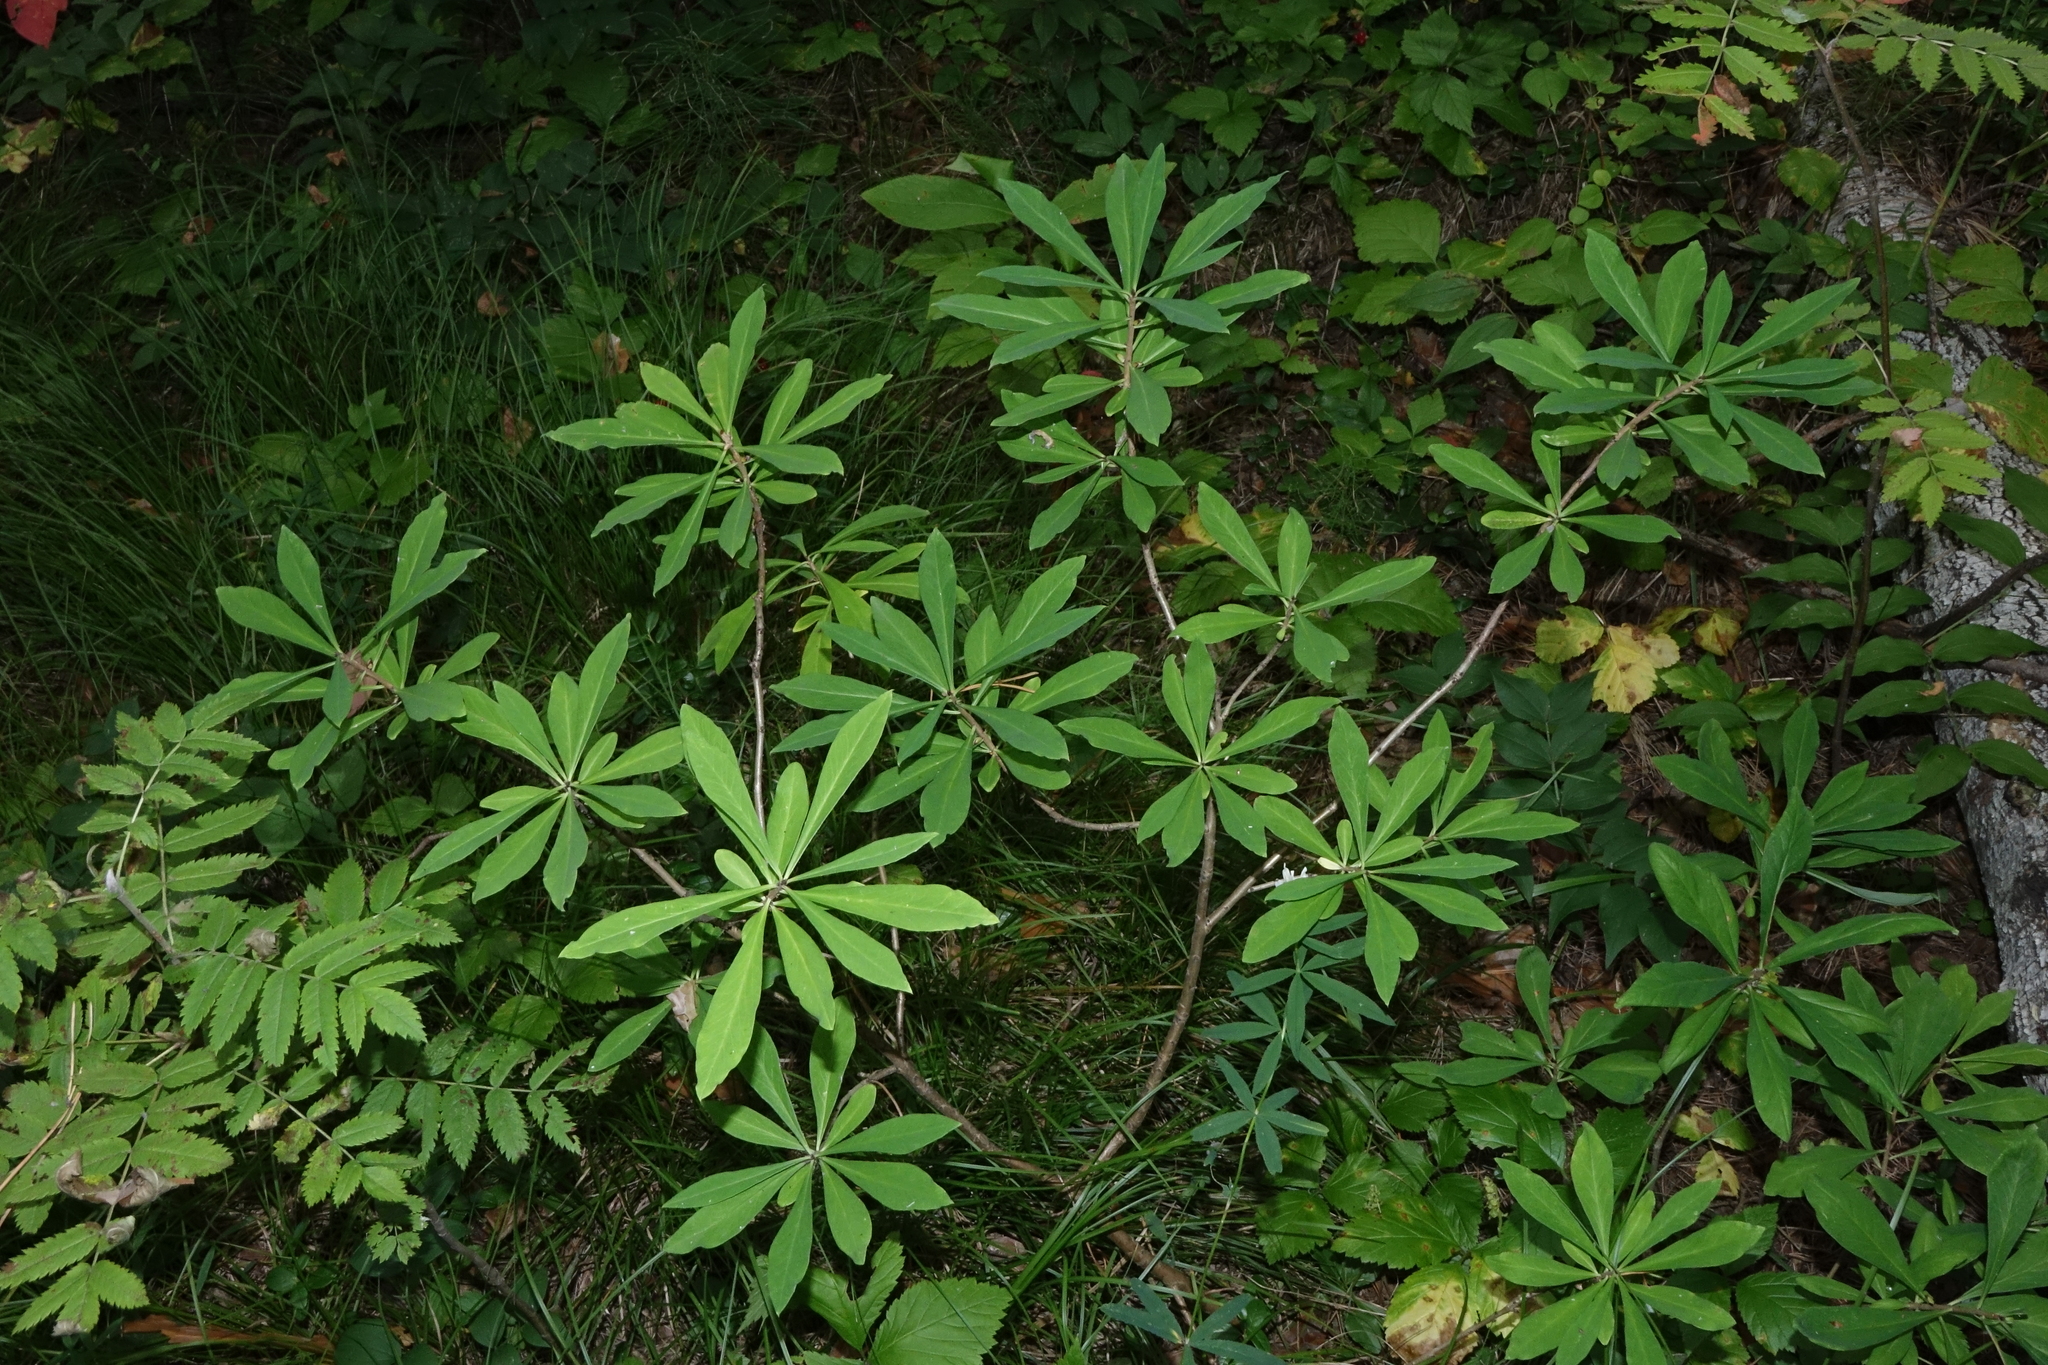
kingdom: Plantae
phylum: Tracheophyta
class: Magnoliopsida
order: Malvales
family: Thymelaeaceae
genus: Daphne
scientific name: Daphne mezereum
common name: Mezereon
